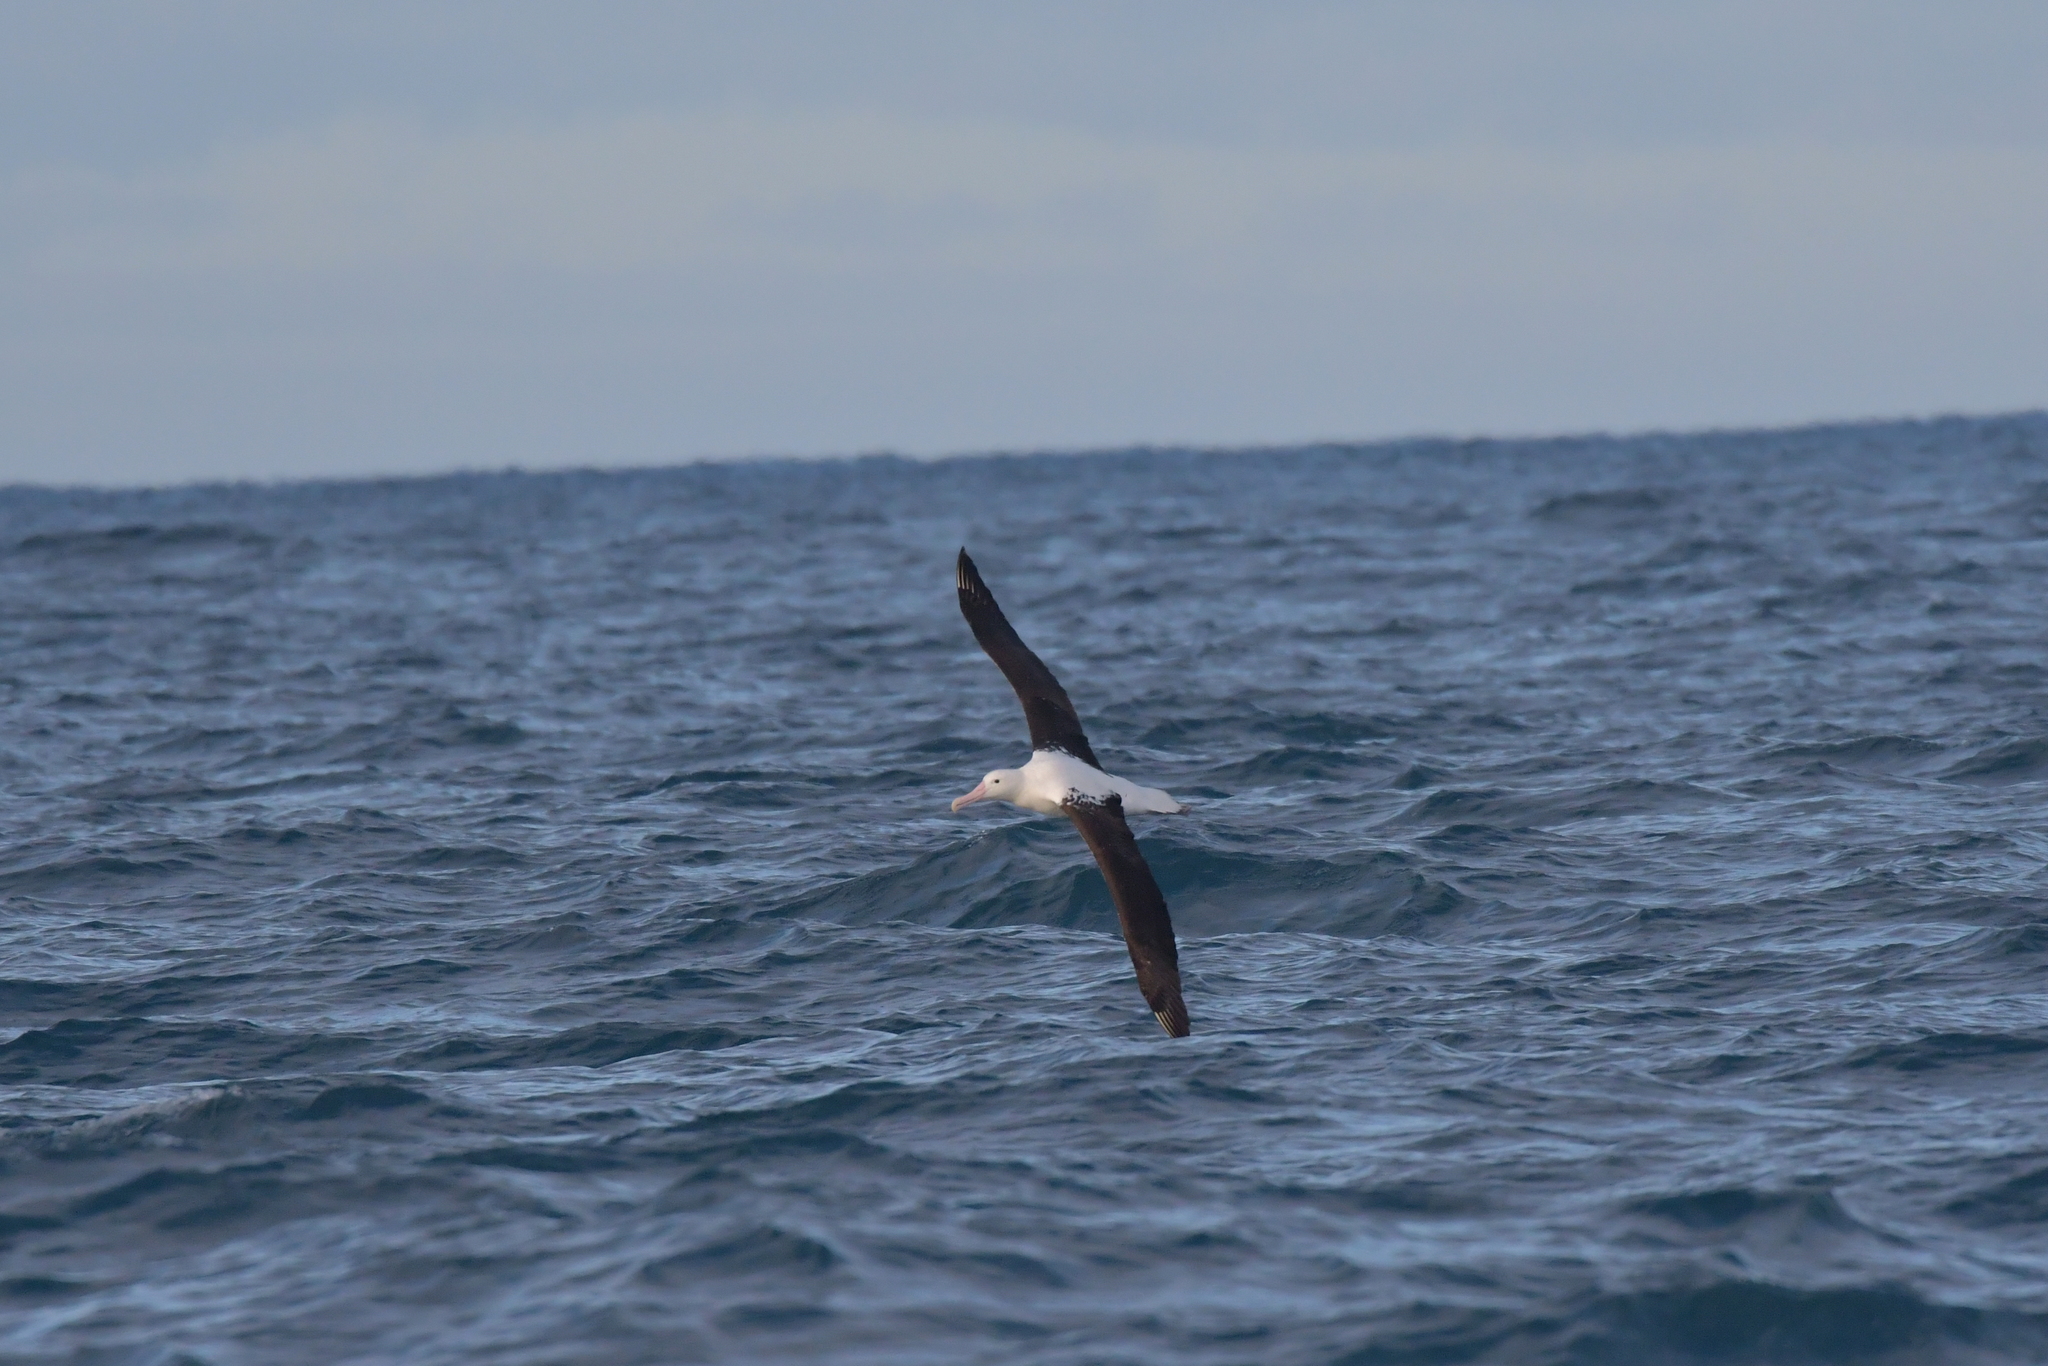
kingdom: Animalia
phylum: Chordata
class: Aves
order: Procellariiformes
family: Diomedeidae
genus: Diomedea
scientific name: Diomedea sanfordi
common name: Northern royal albatross
